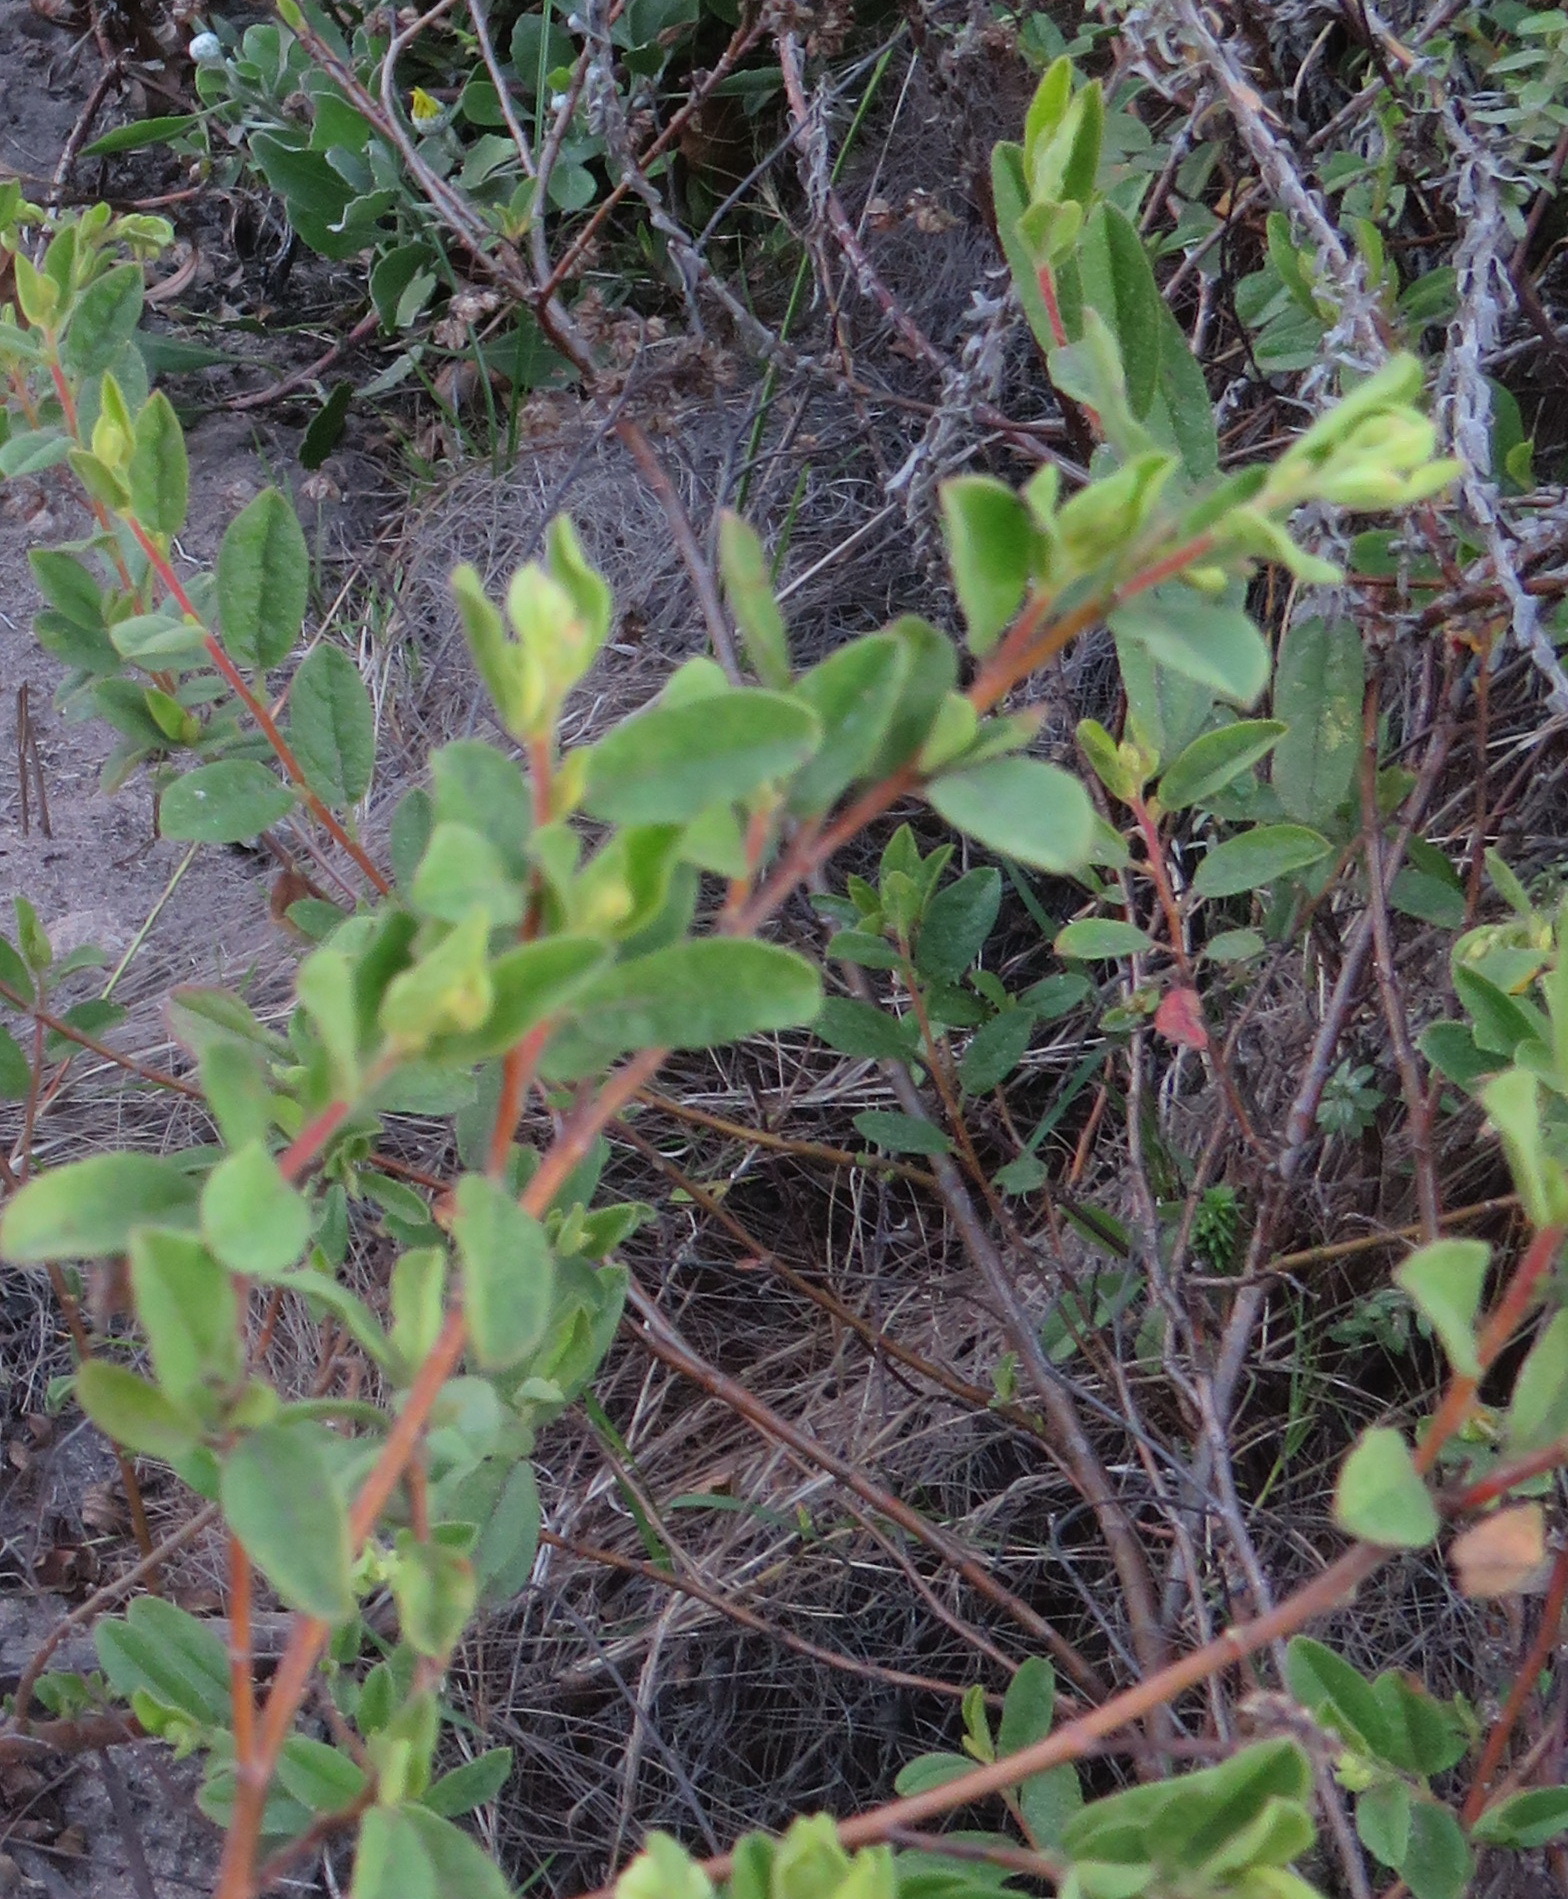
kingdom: Plantae
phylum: Tracheophyta
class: Magnoliopsida
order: Malvales
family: Malvaceae
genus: Hermannia
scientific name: Hermannia salviifolia
